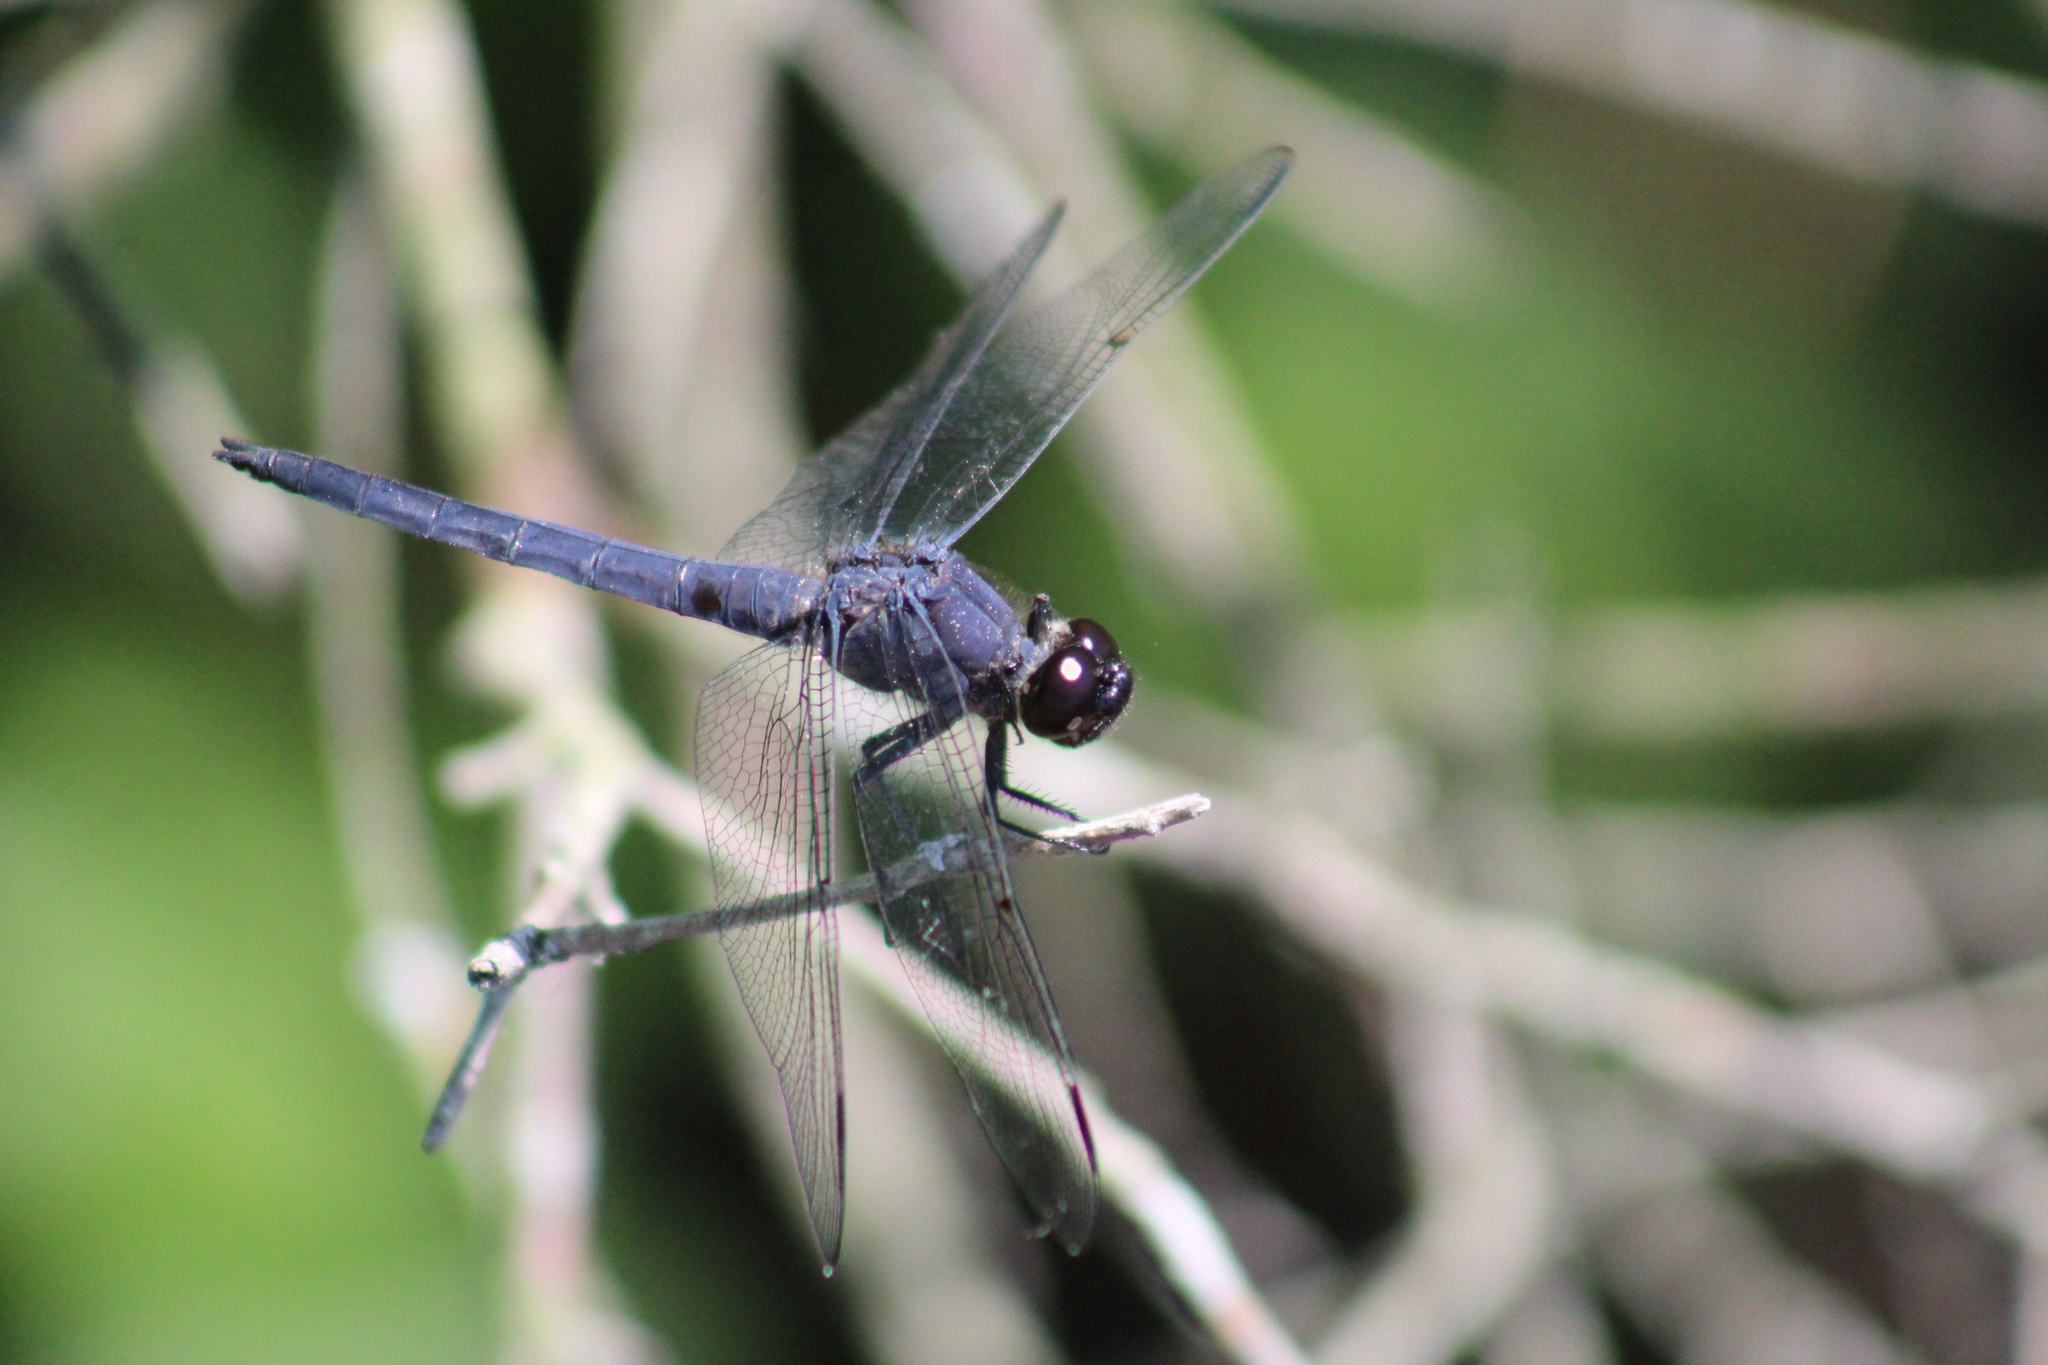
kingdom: Animalia
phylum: Arthropoda
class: Insecta
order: Odonata
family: Libellulidae
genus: Libellula
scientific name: Libellula incesta
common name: Slaty skimmer
